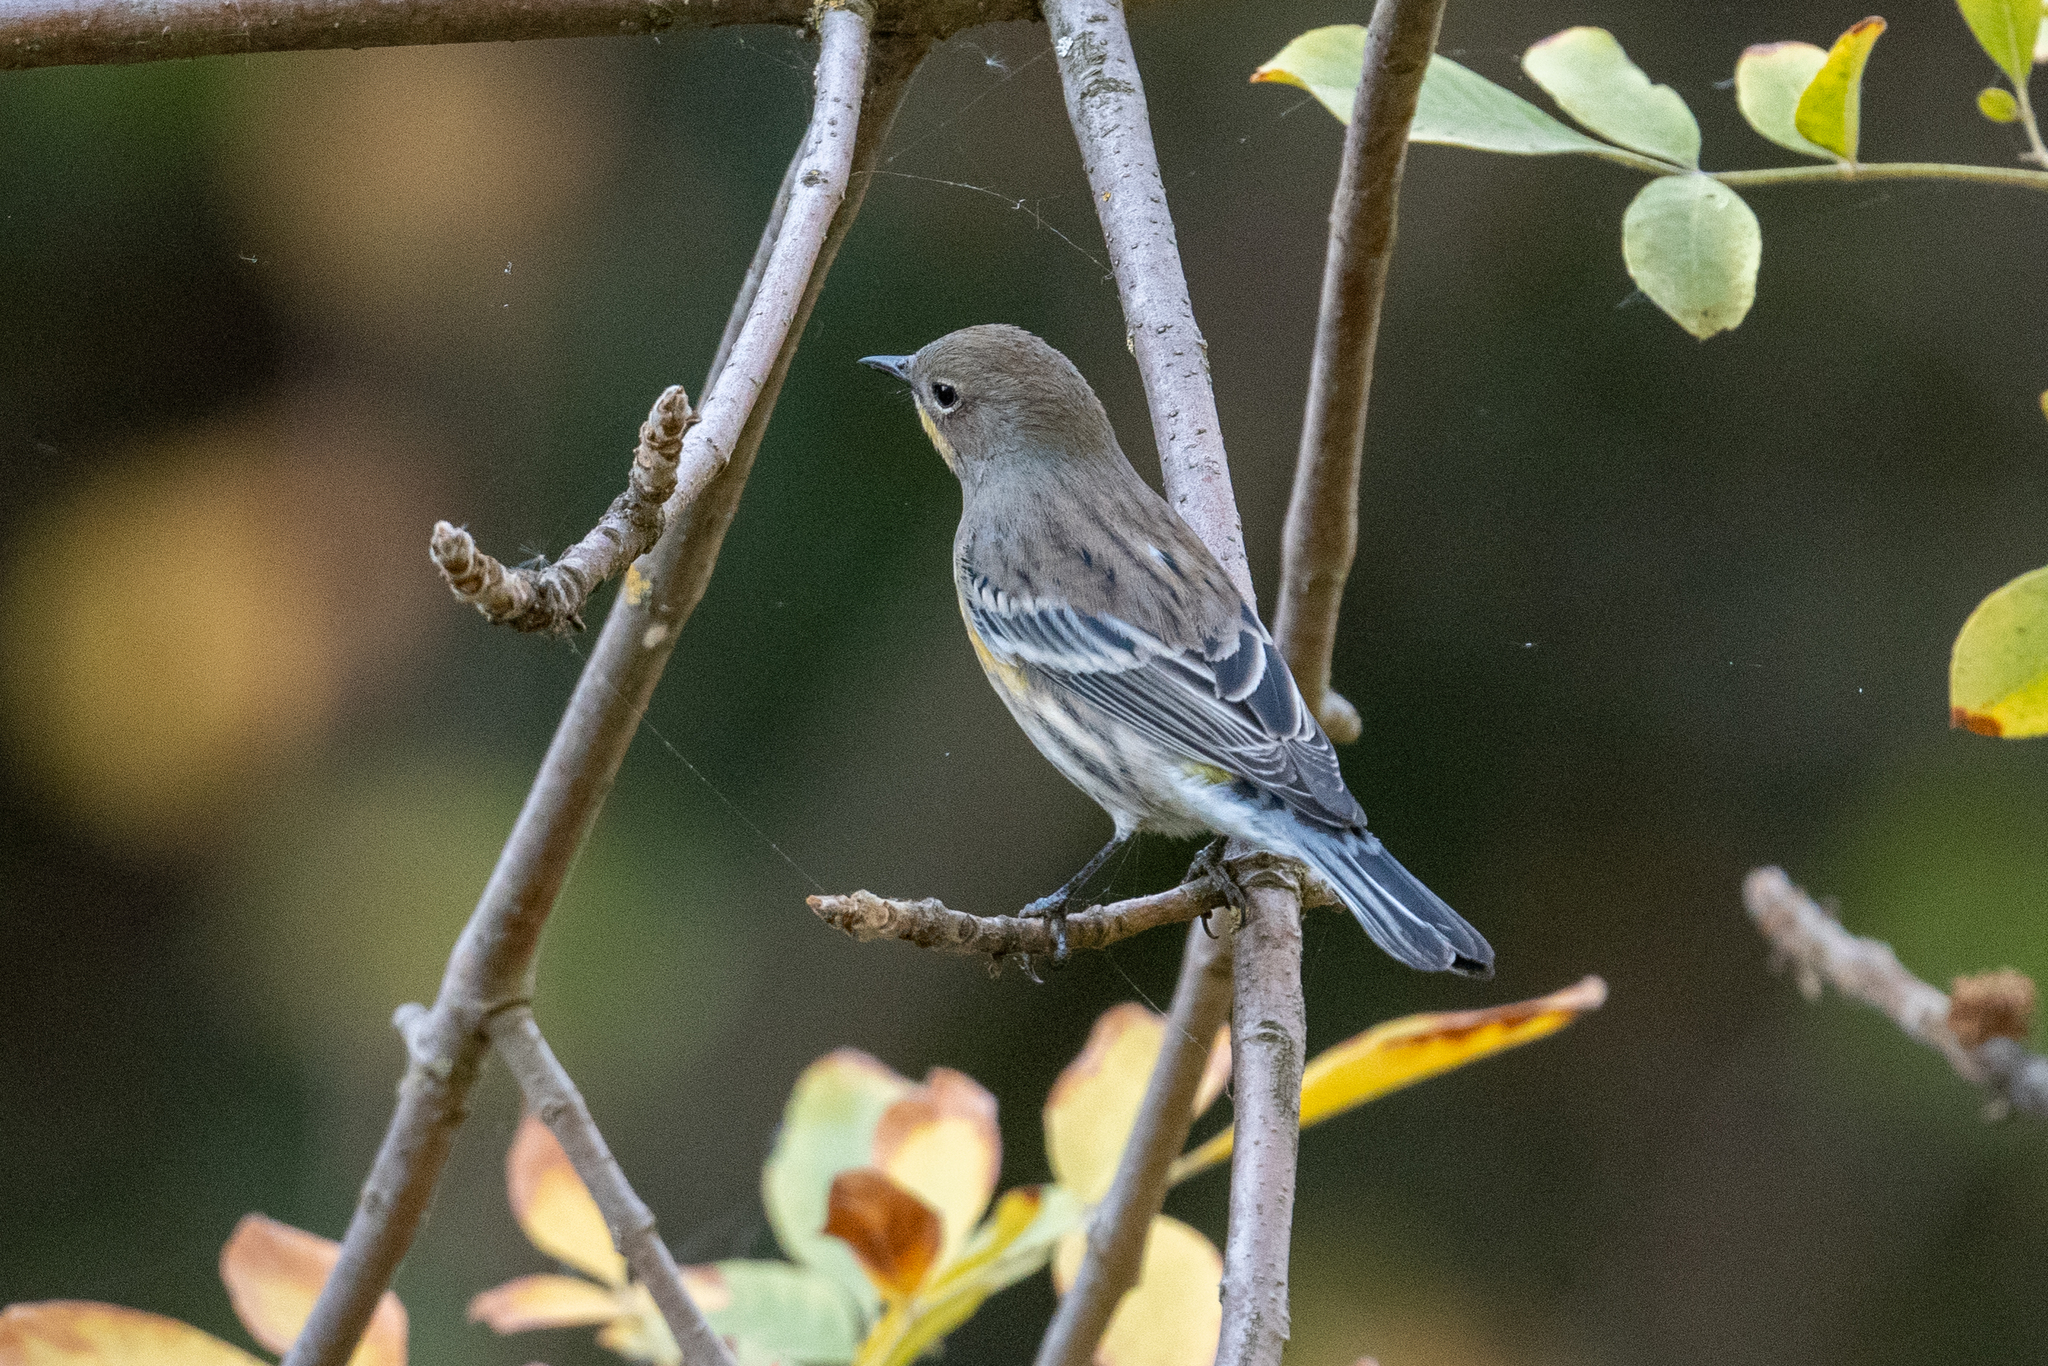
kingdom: Animalia
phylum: Chordata
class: Aves
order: Passeriformes
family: Parulidae
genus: Setophaga
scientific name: Setophaga coronata
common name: Myrtle warbler
